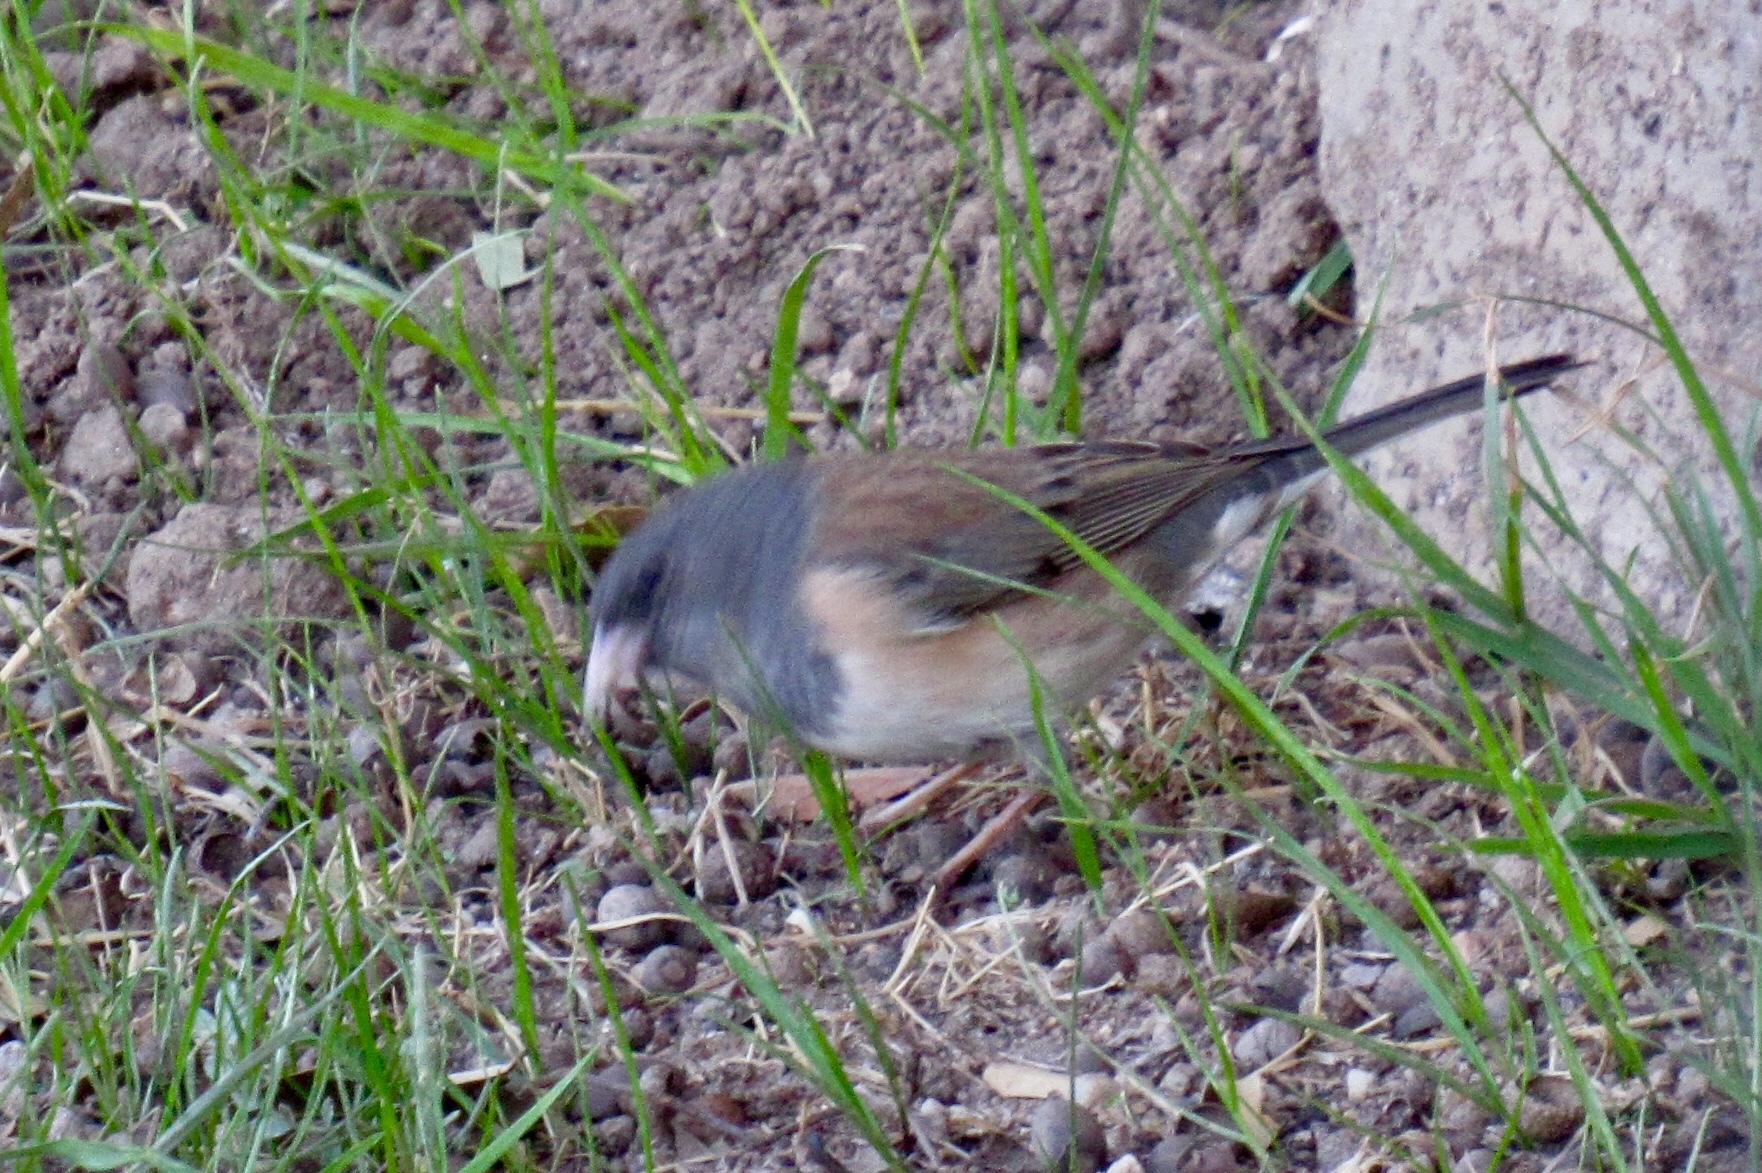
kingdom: Animalia
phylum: Chordata
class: Aves
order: Passeriformes
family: Passerellidae
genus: Junco
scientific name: Junco hyemalis
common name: Dark-eyed junco
